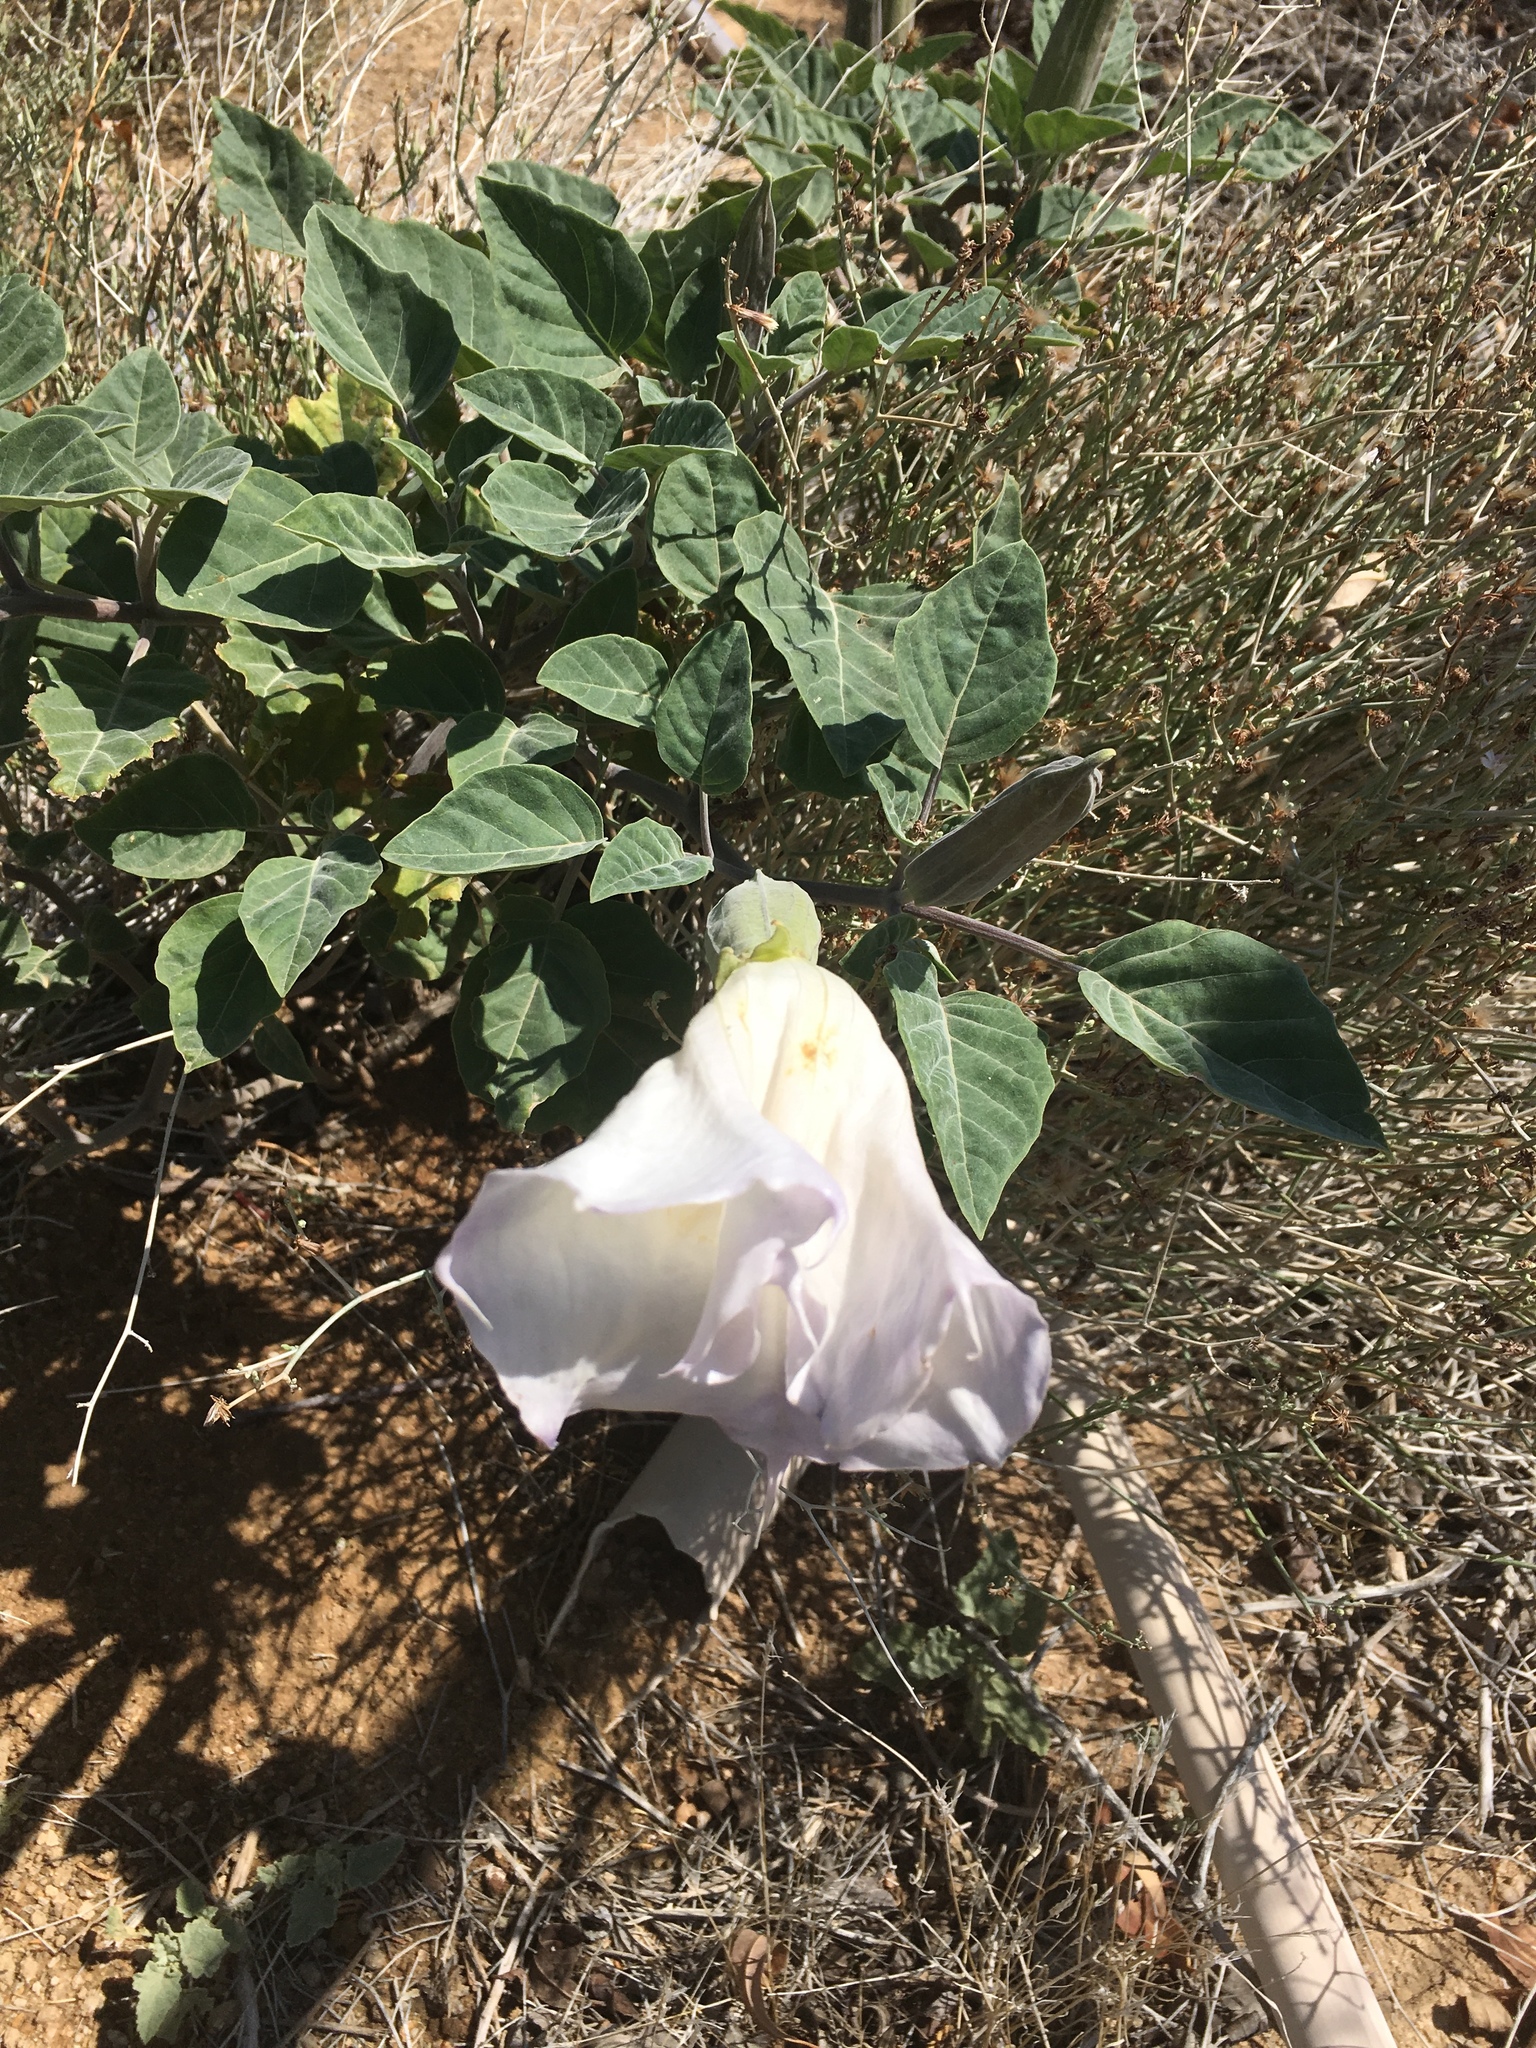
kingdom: Plantae
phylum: Tracheophyta
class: Magnoliopsida
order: Solanales
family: Solanaceae
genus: Datura
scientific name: Datura wrightii
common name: Sacred thorn-apple
